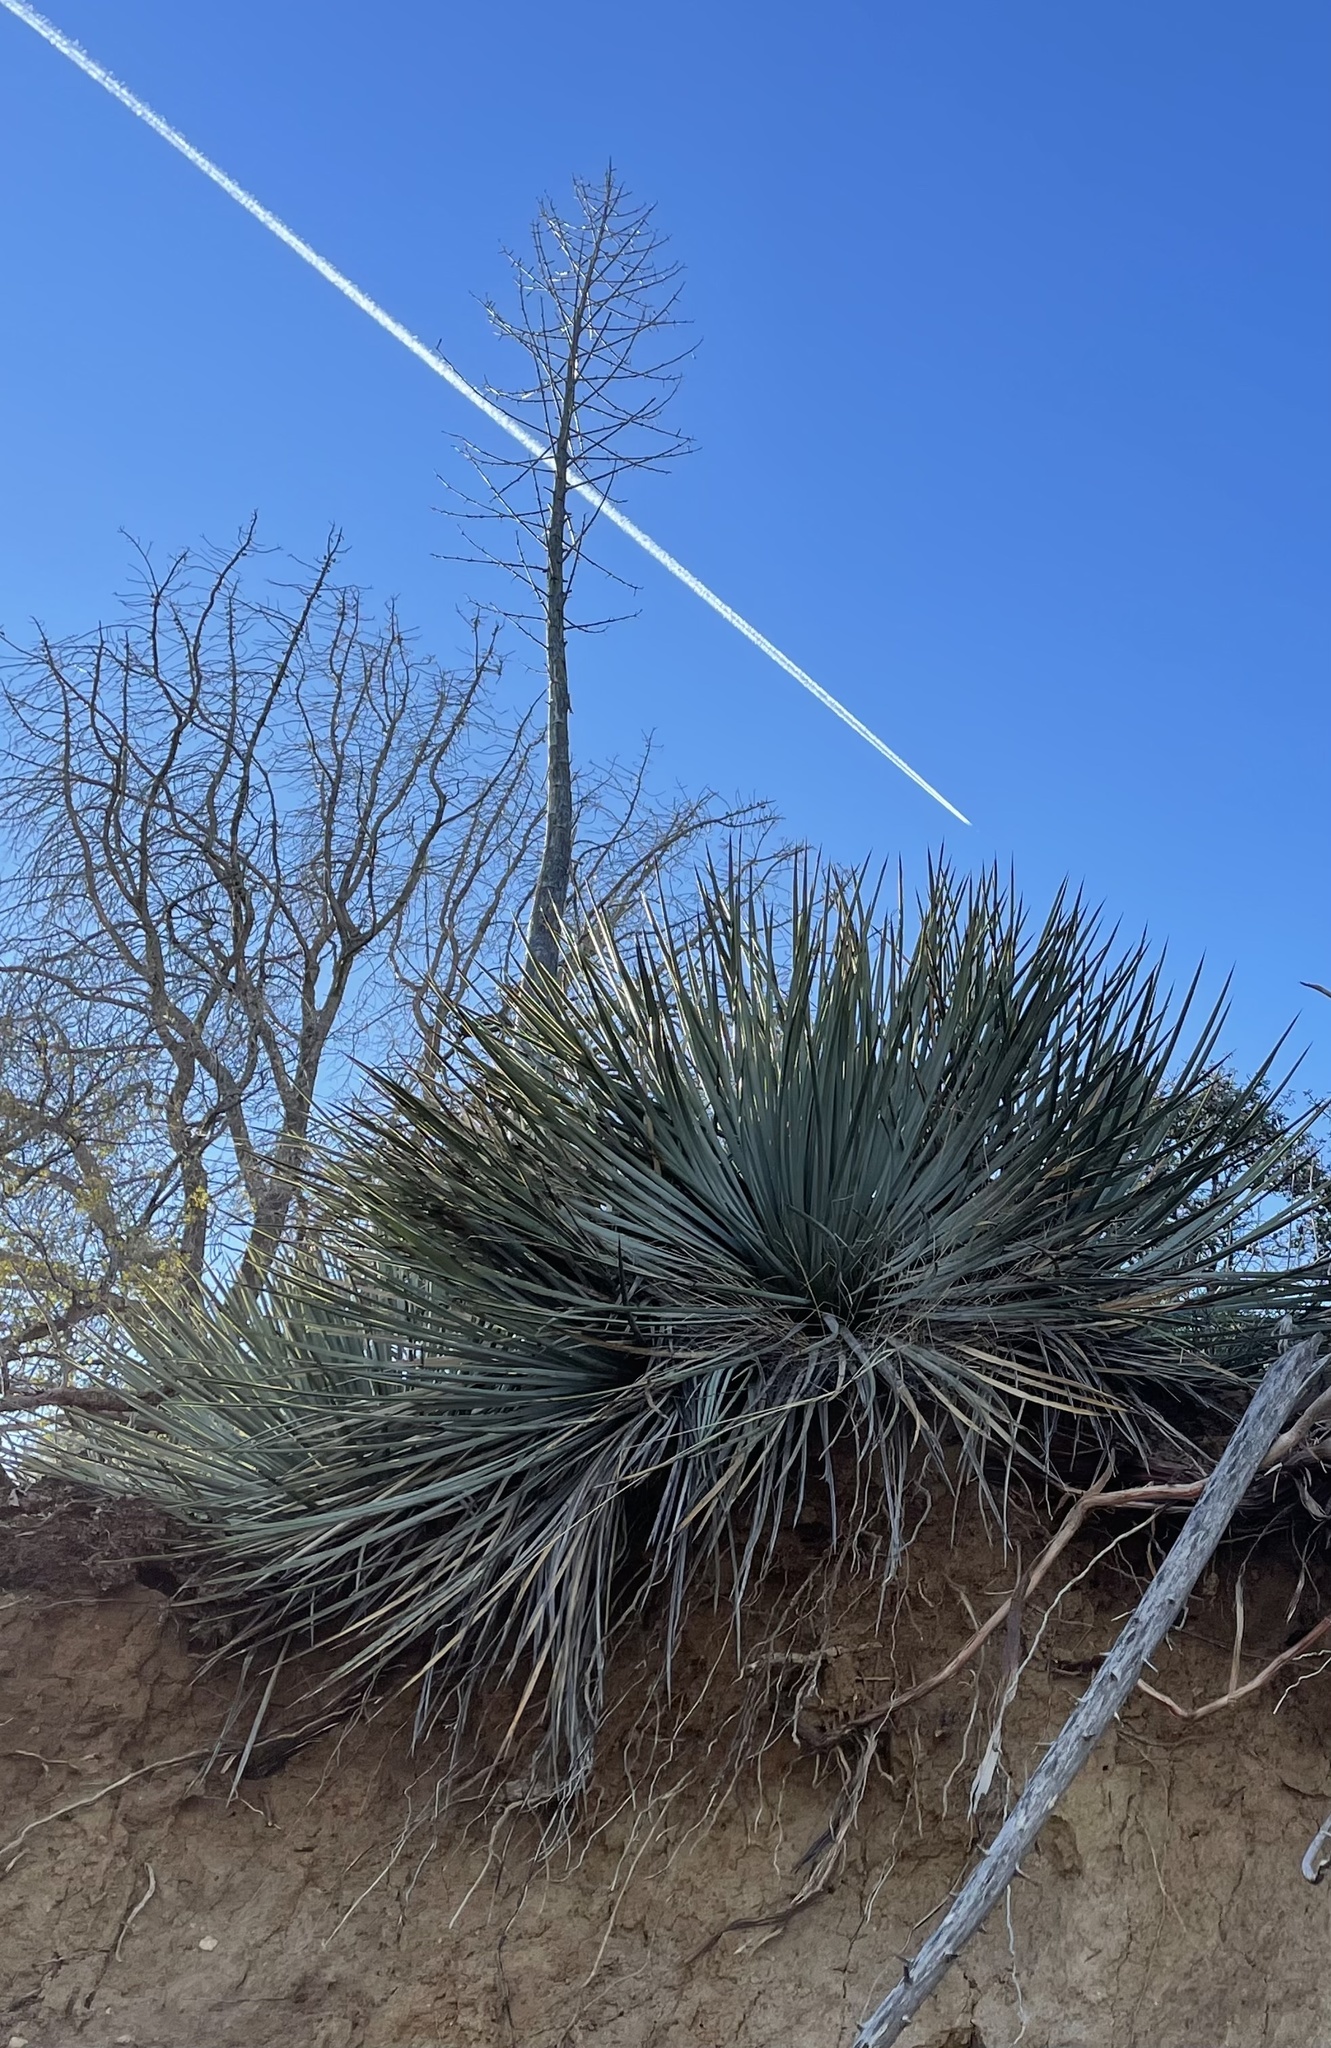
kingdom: Plantae
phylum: Tracheophyta
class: Liliopsida
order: Asparagales
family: Asparagaceae
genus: Hesperoyucca
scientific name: Hesperoyucca whipplei
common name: Our lord's-candle
